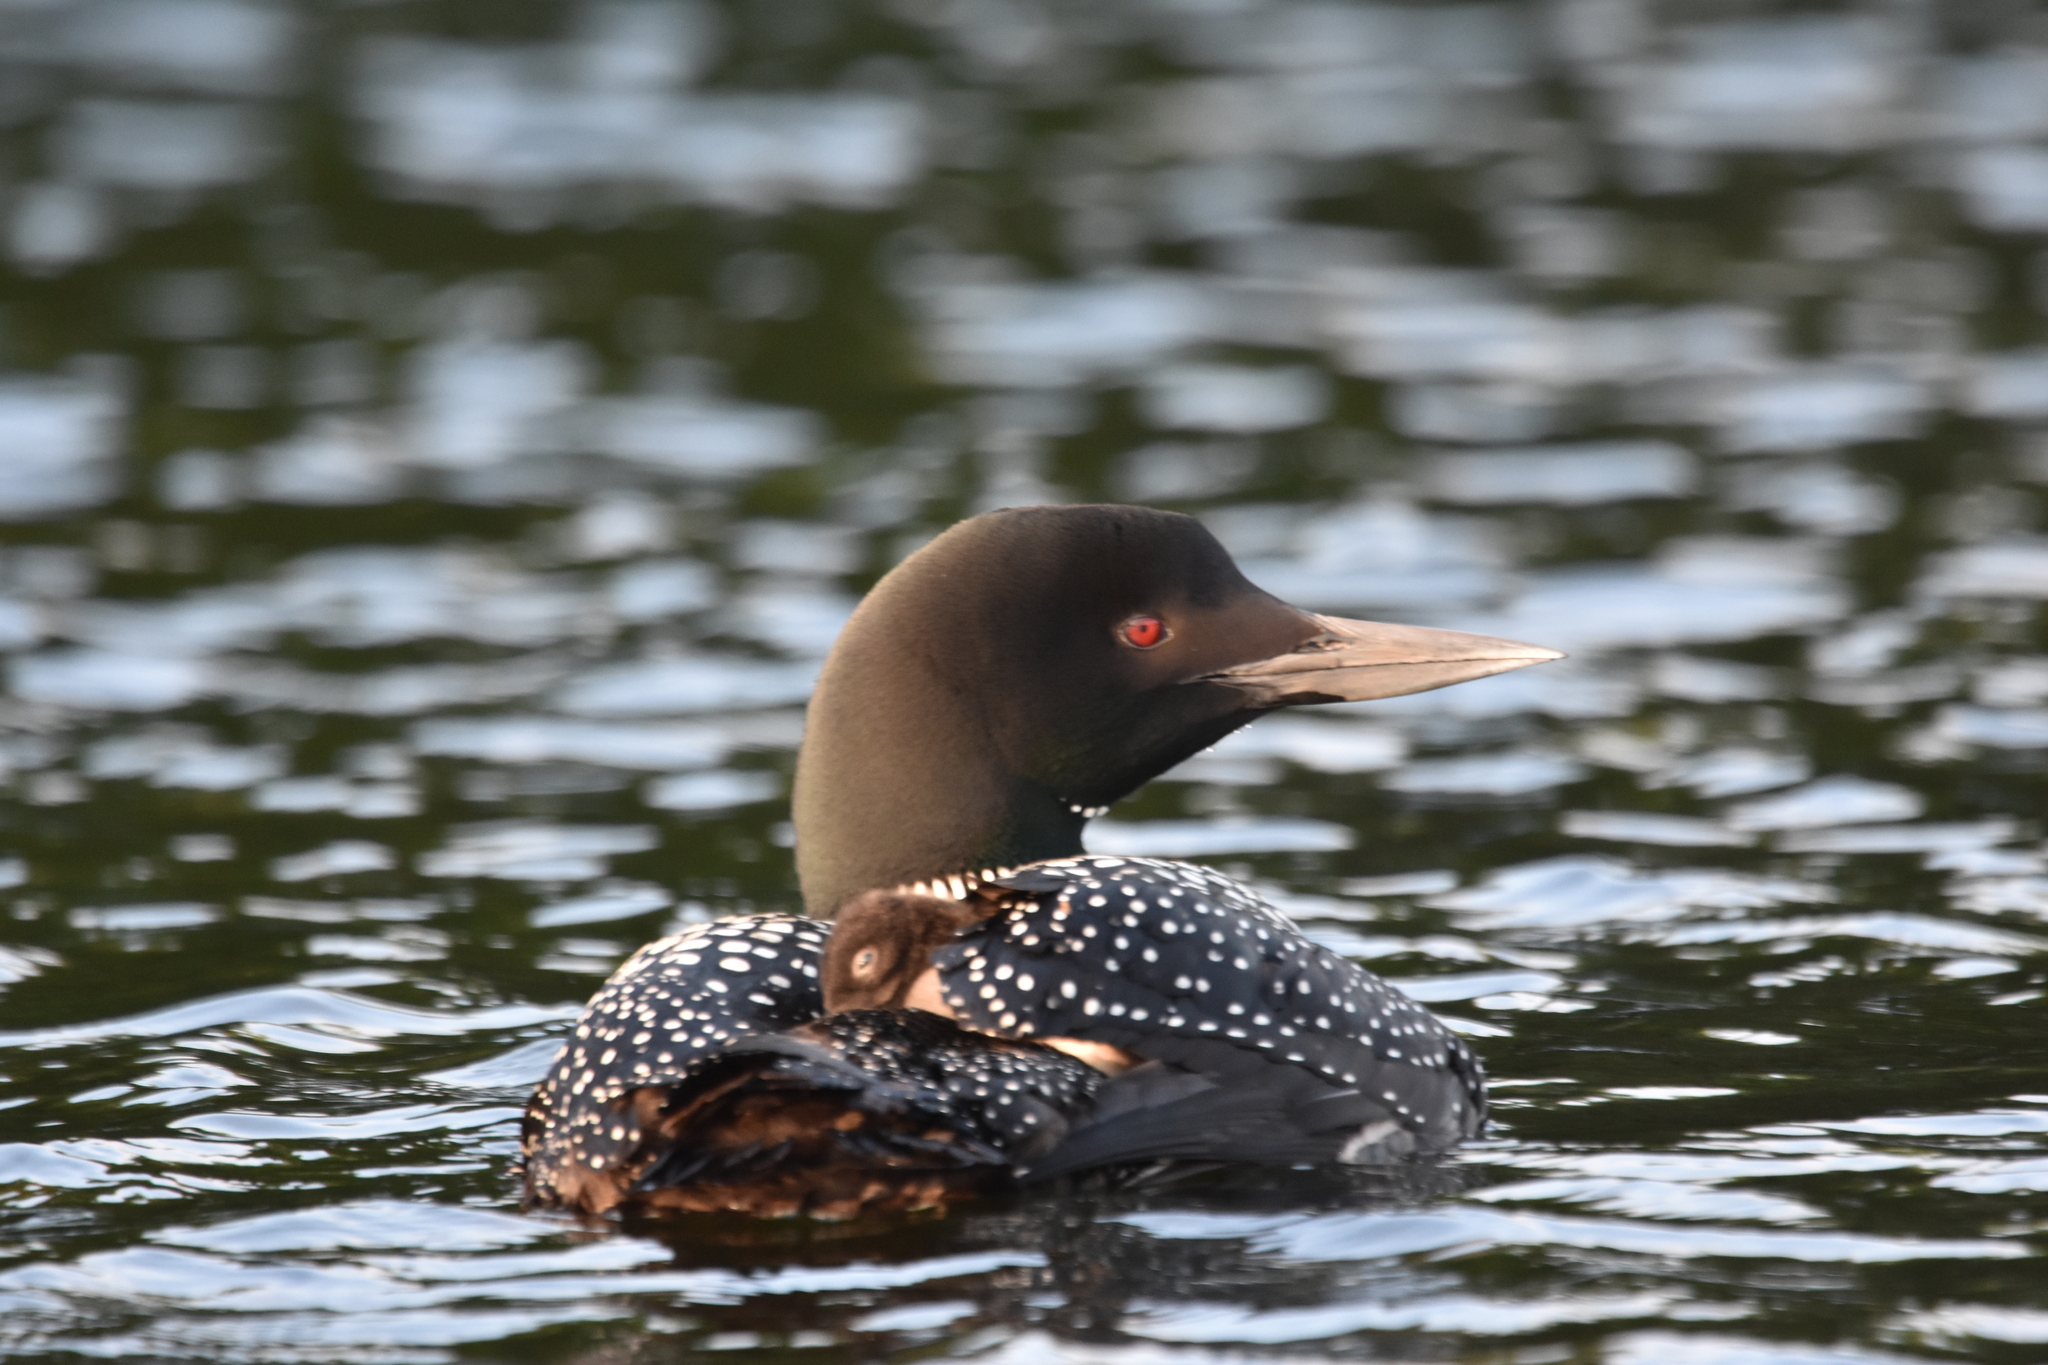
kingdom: Animalia
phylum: Chordata
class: Aves
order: Gaviiformes
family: Gaviidae
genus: Gavia
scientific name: Gavia immer
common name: Common loon
